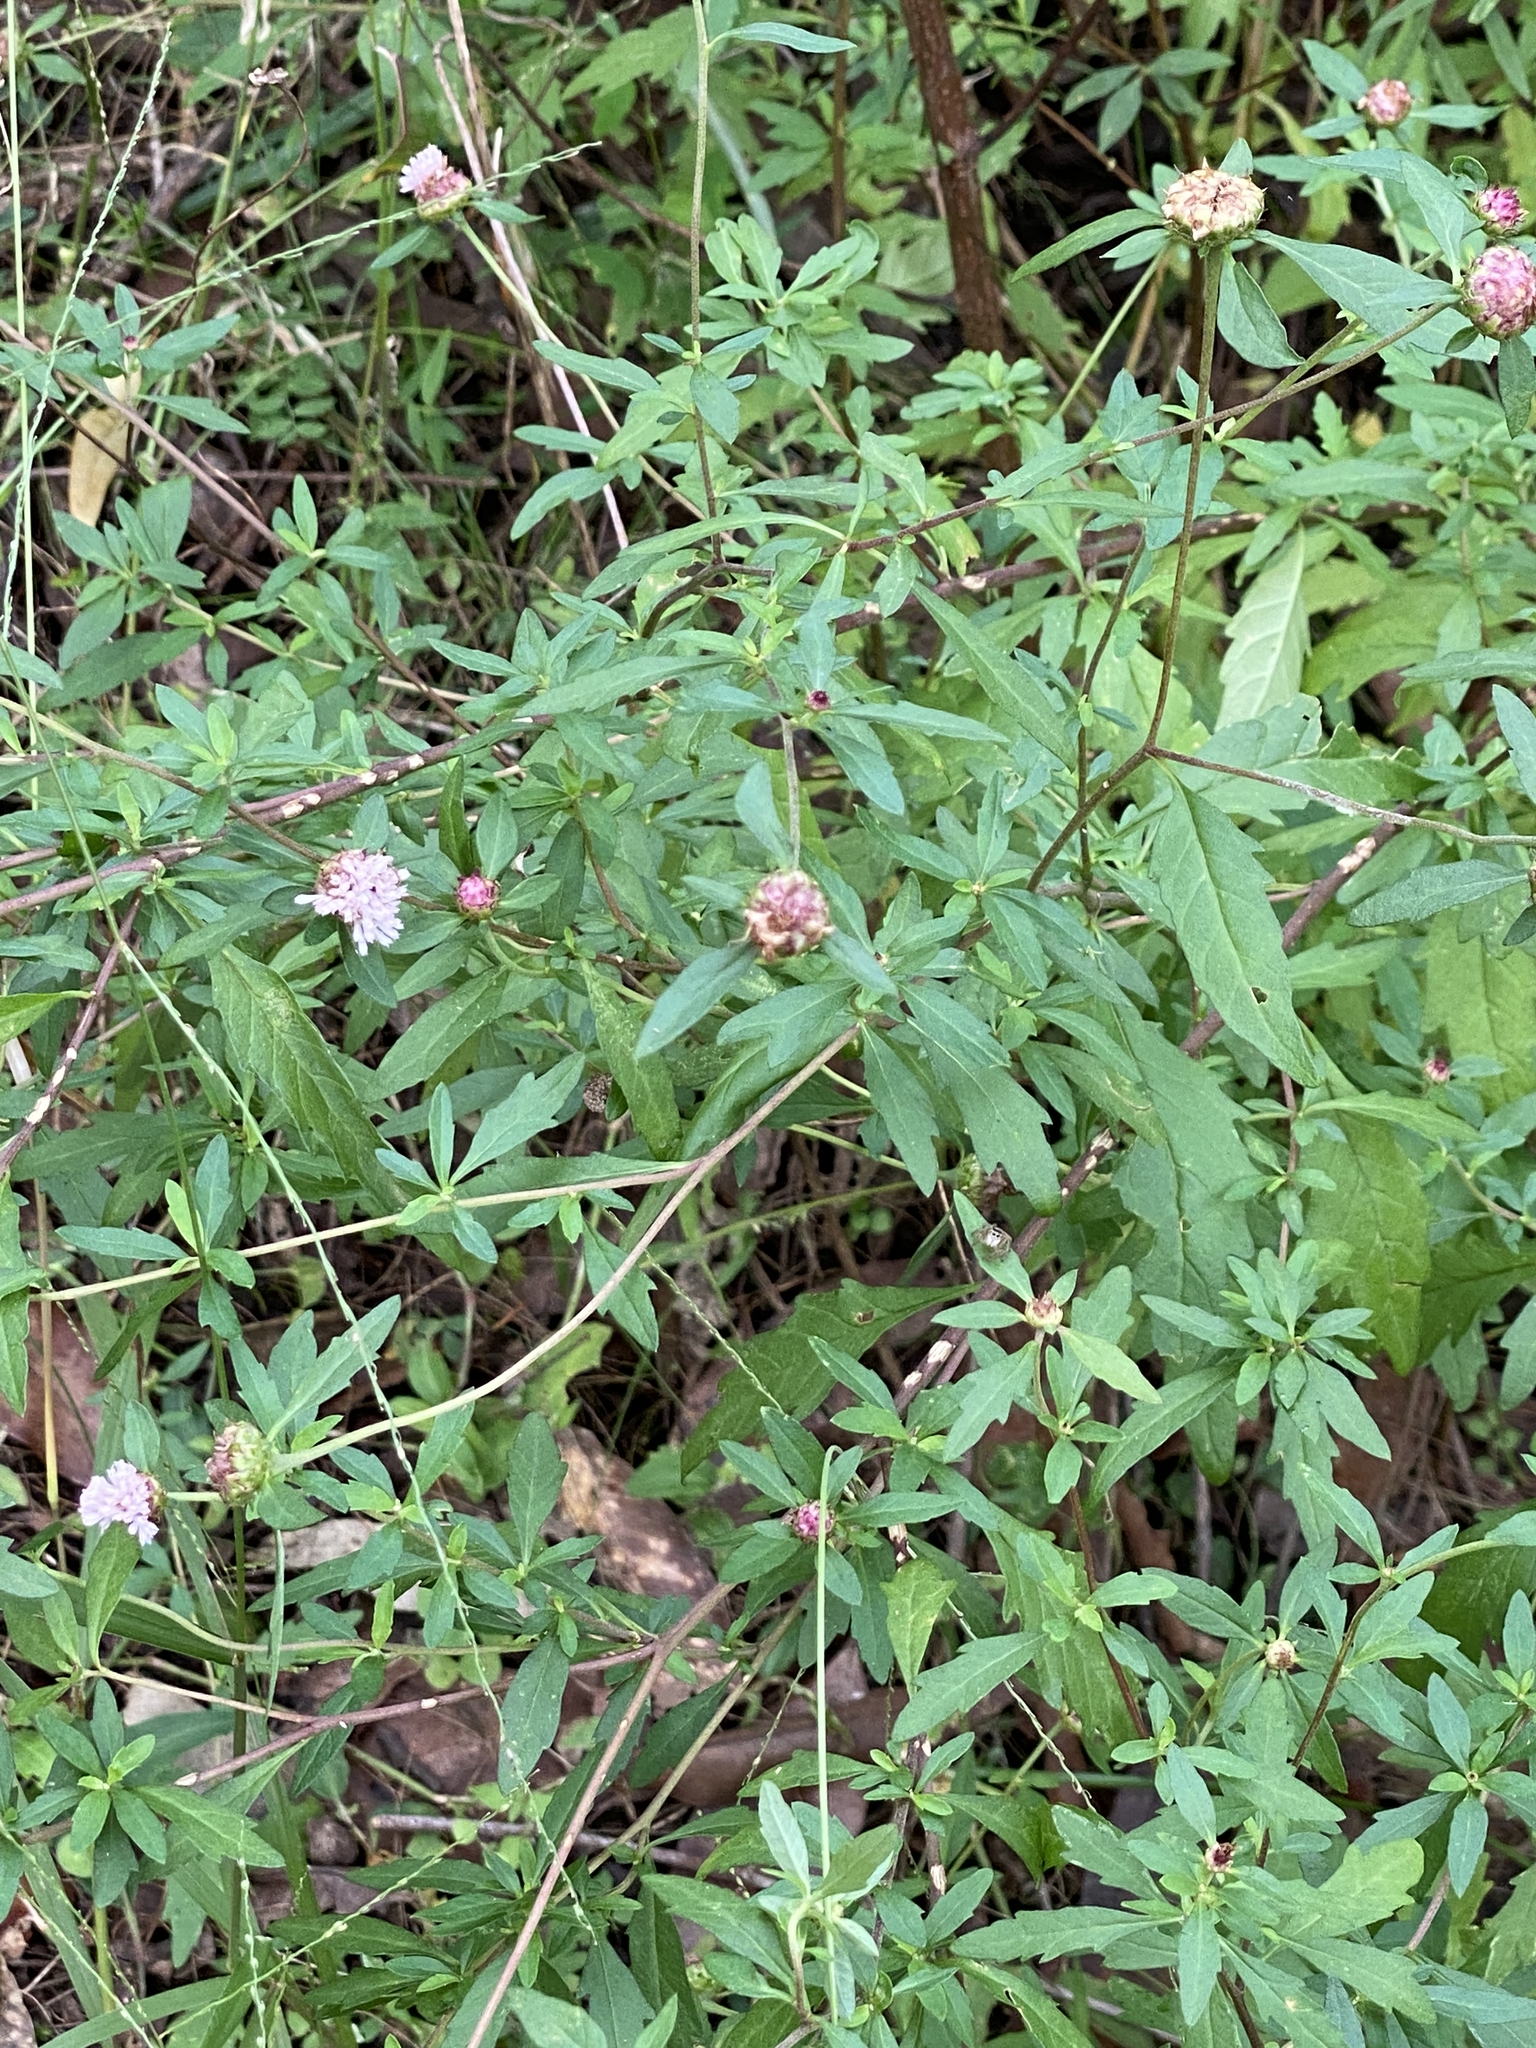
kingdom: Plantae
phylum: Tracheophyta
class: Magnoliopsida
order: Asterales
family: Asteraceae
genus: Centratherum
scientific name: Centratherum punctatum
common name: Larkdaisy
